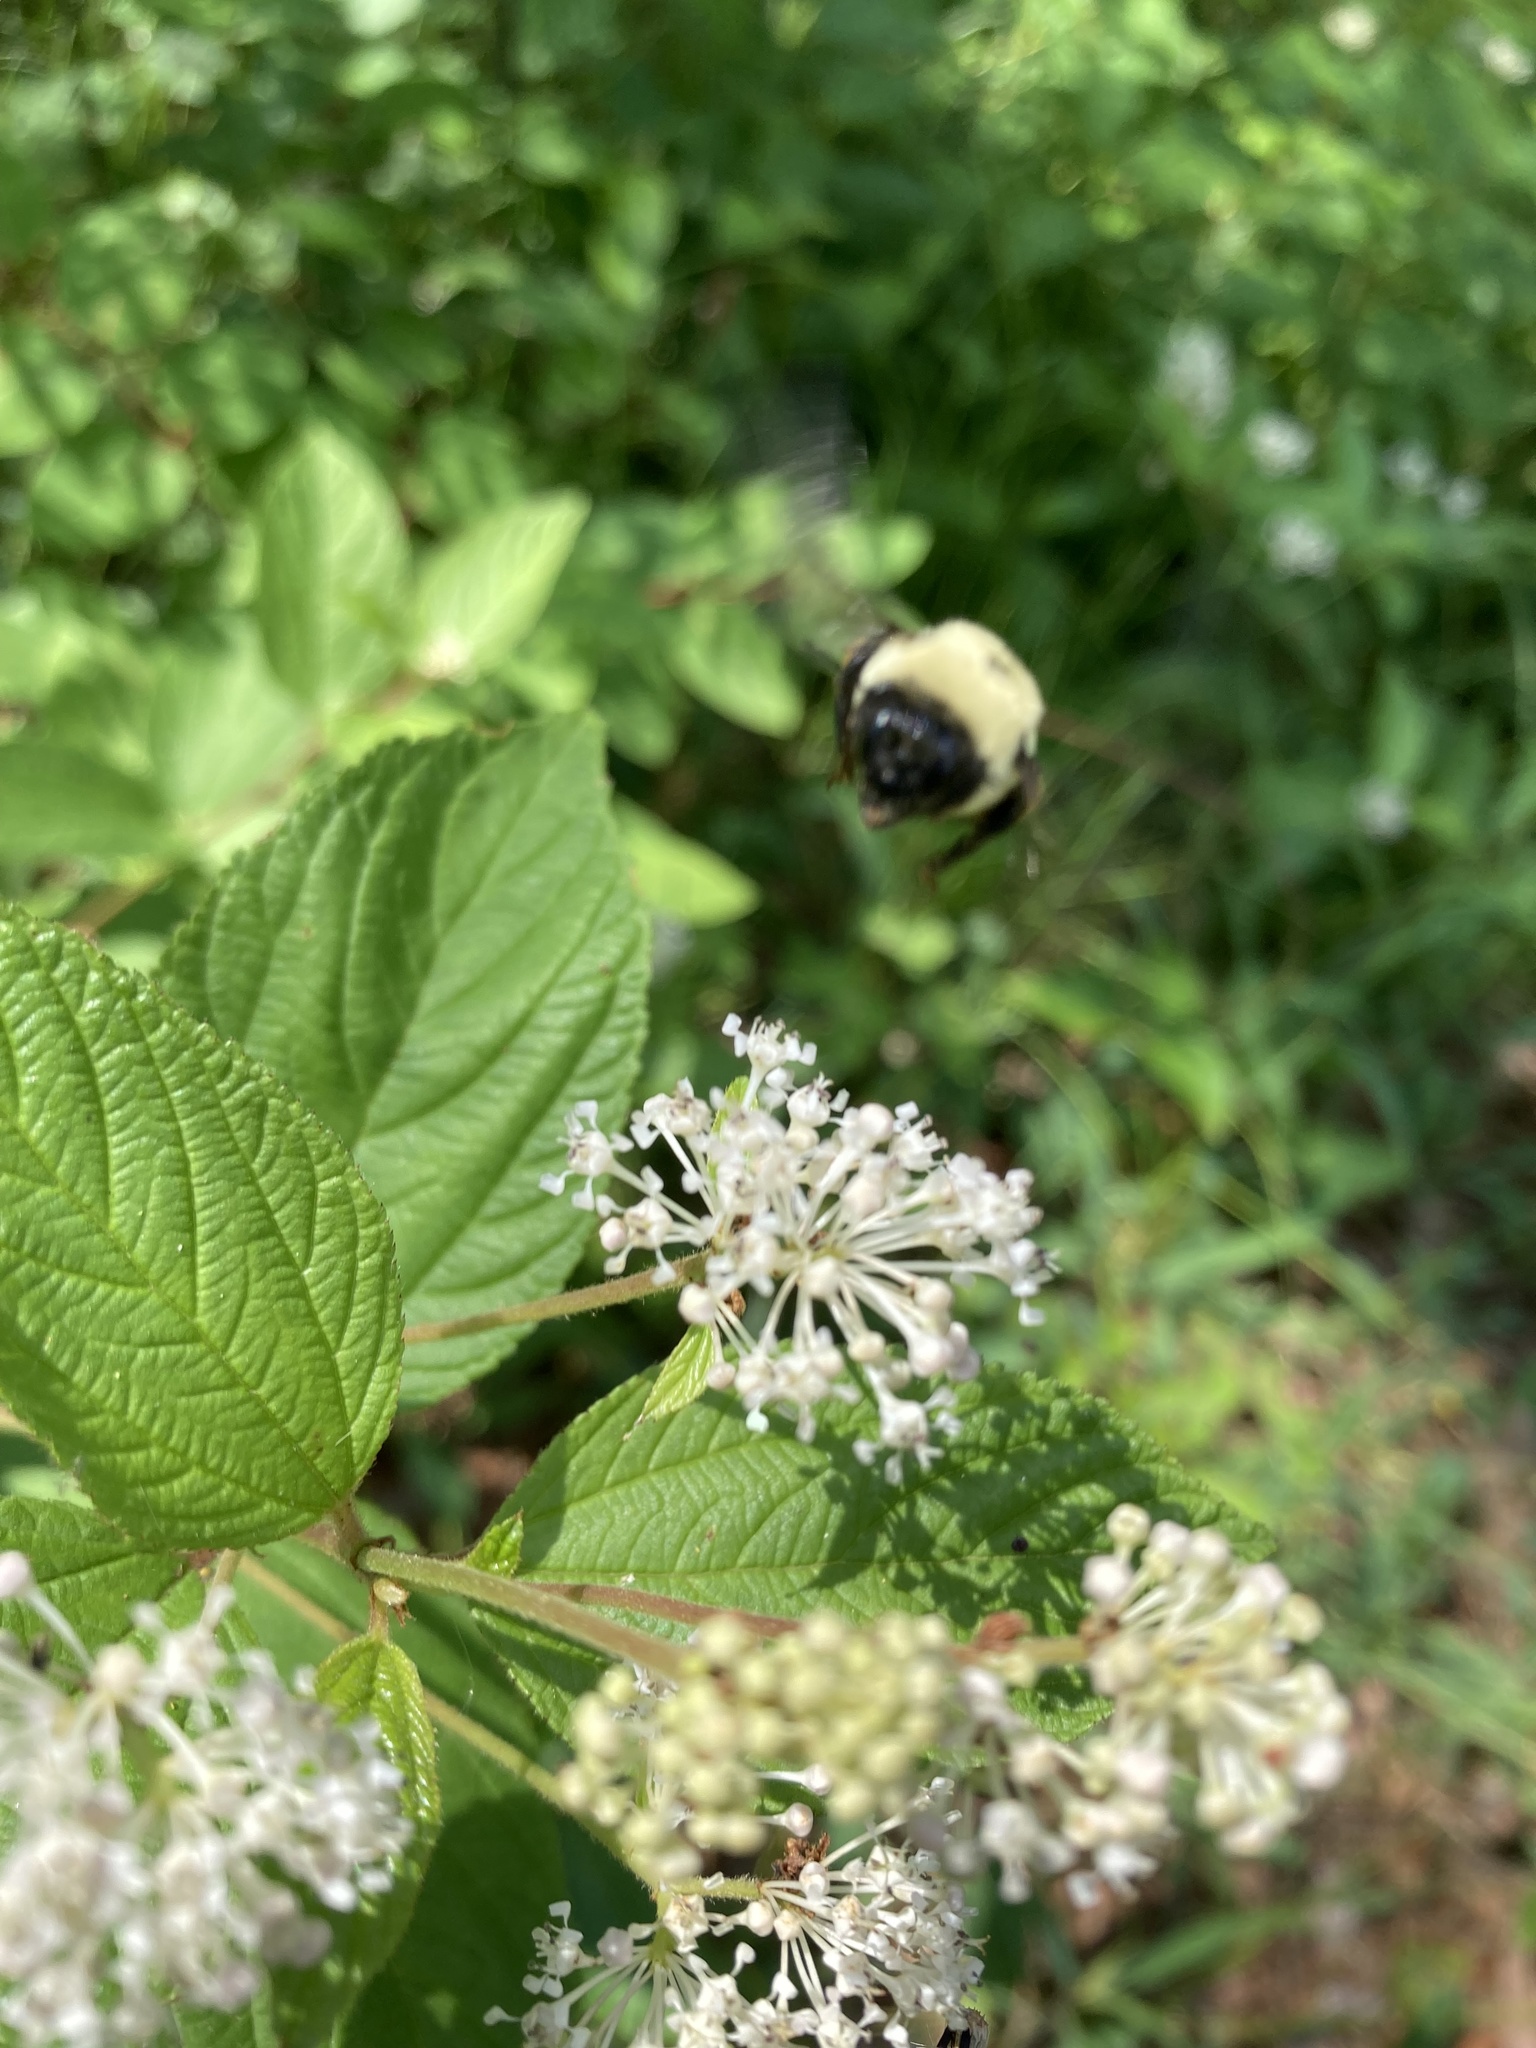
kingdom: Animalia
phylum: Arthropoda
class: Insecta
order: Hymenoptera
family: Apidae
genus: Bombus
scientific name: Bombus griseocollis
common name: Brown-belted bumble bee
